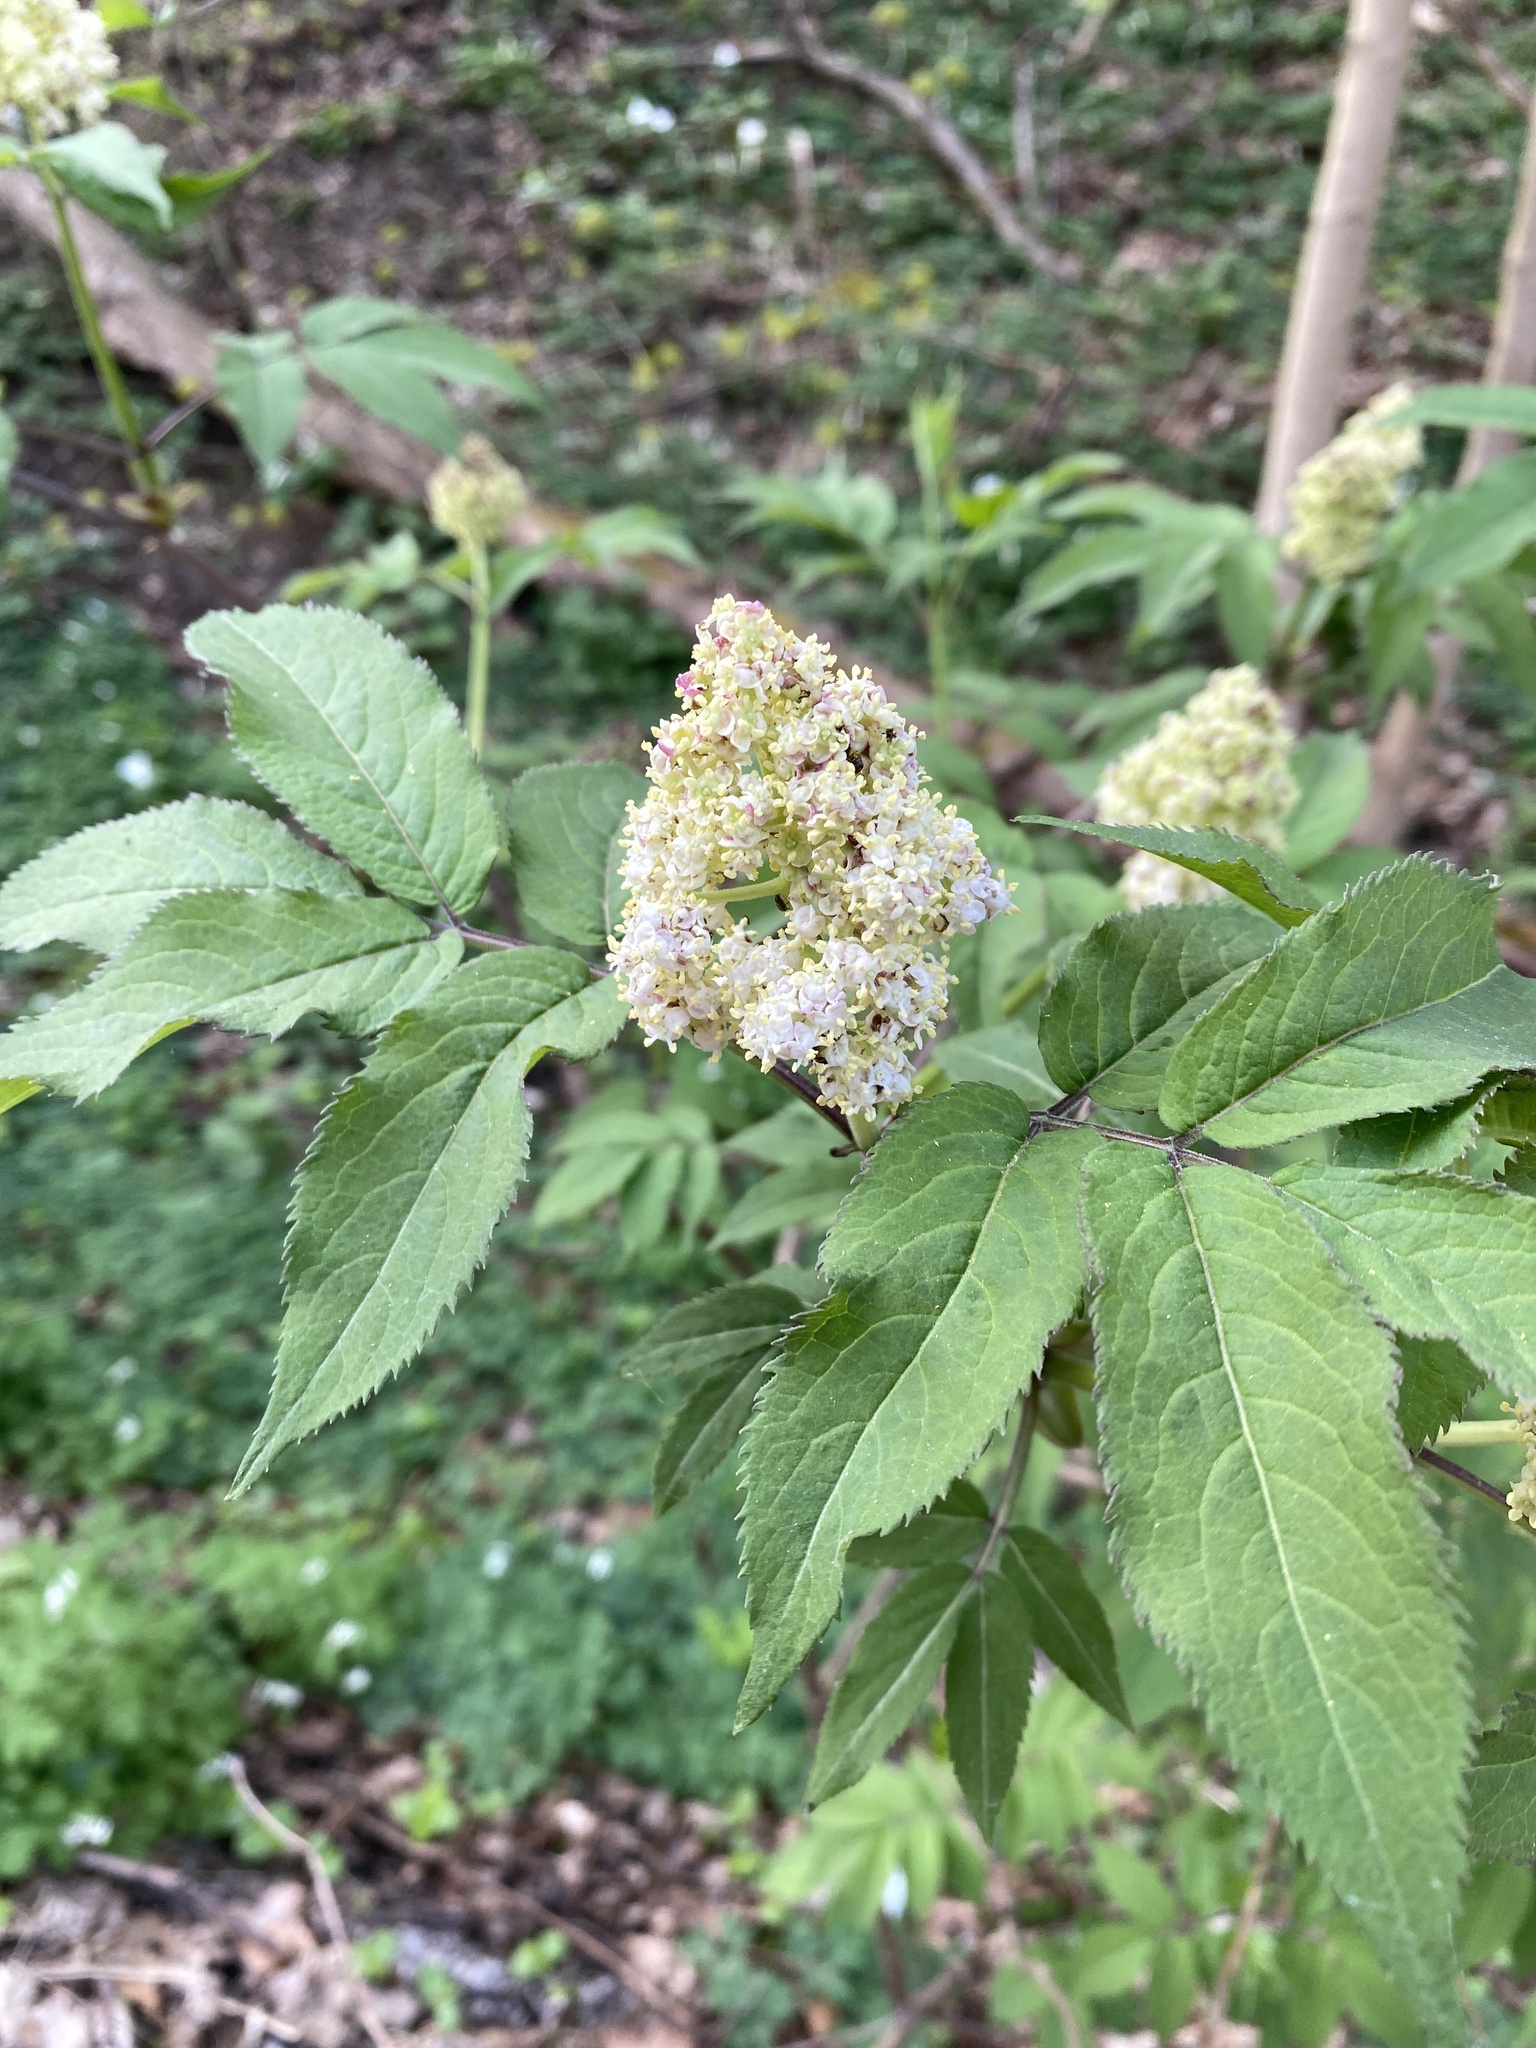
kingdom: Plantae
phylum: Tracheophyta
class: Magnoliopsida
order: Dipsacales
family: Viburnaceae
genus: Sambucus
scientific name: Sambucus racemosa
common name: Red-berried elder
